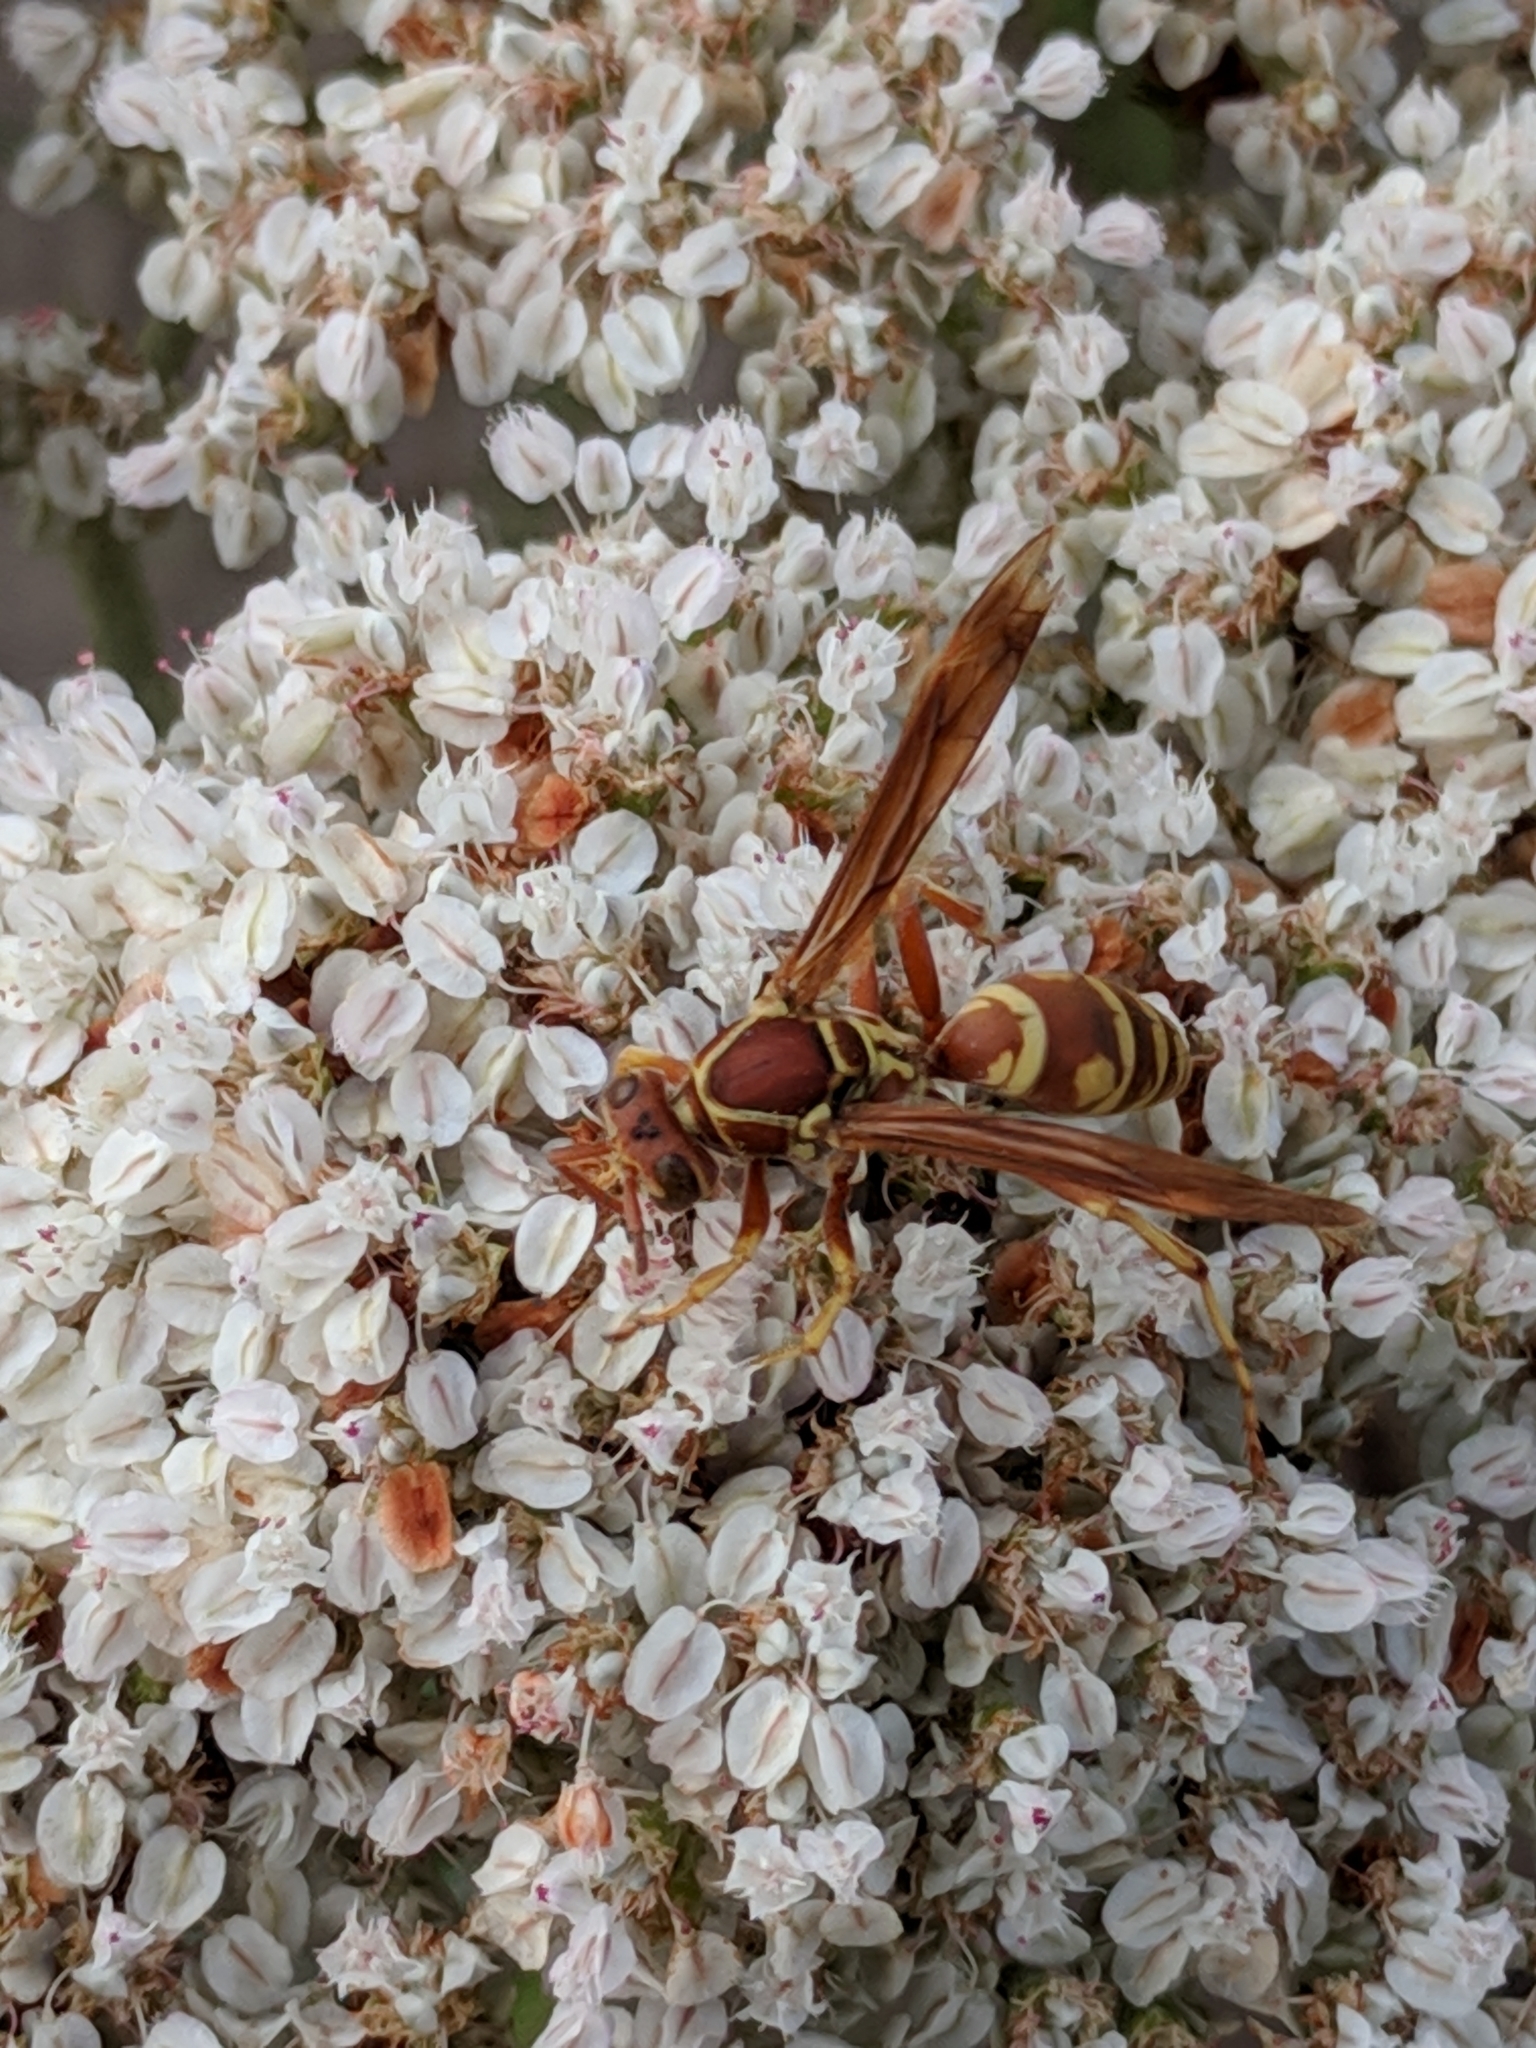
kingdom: Animalia
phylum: Arthropoda
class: Insecta
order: Hymenoptera
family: Eumenidae
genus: Polistes
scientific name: Polistes bellicosus
